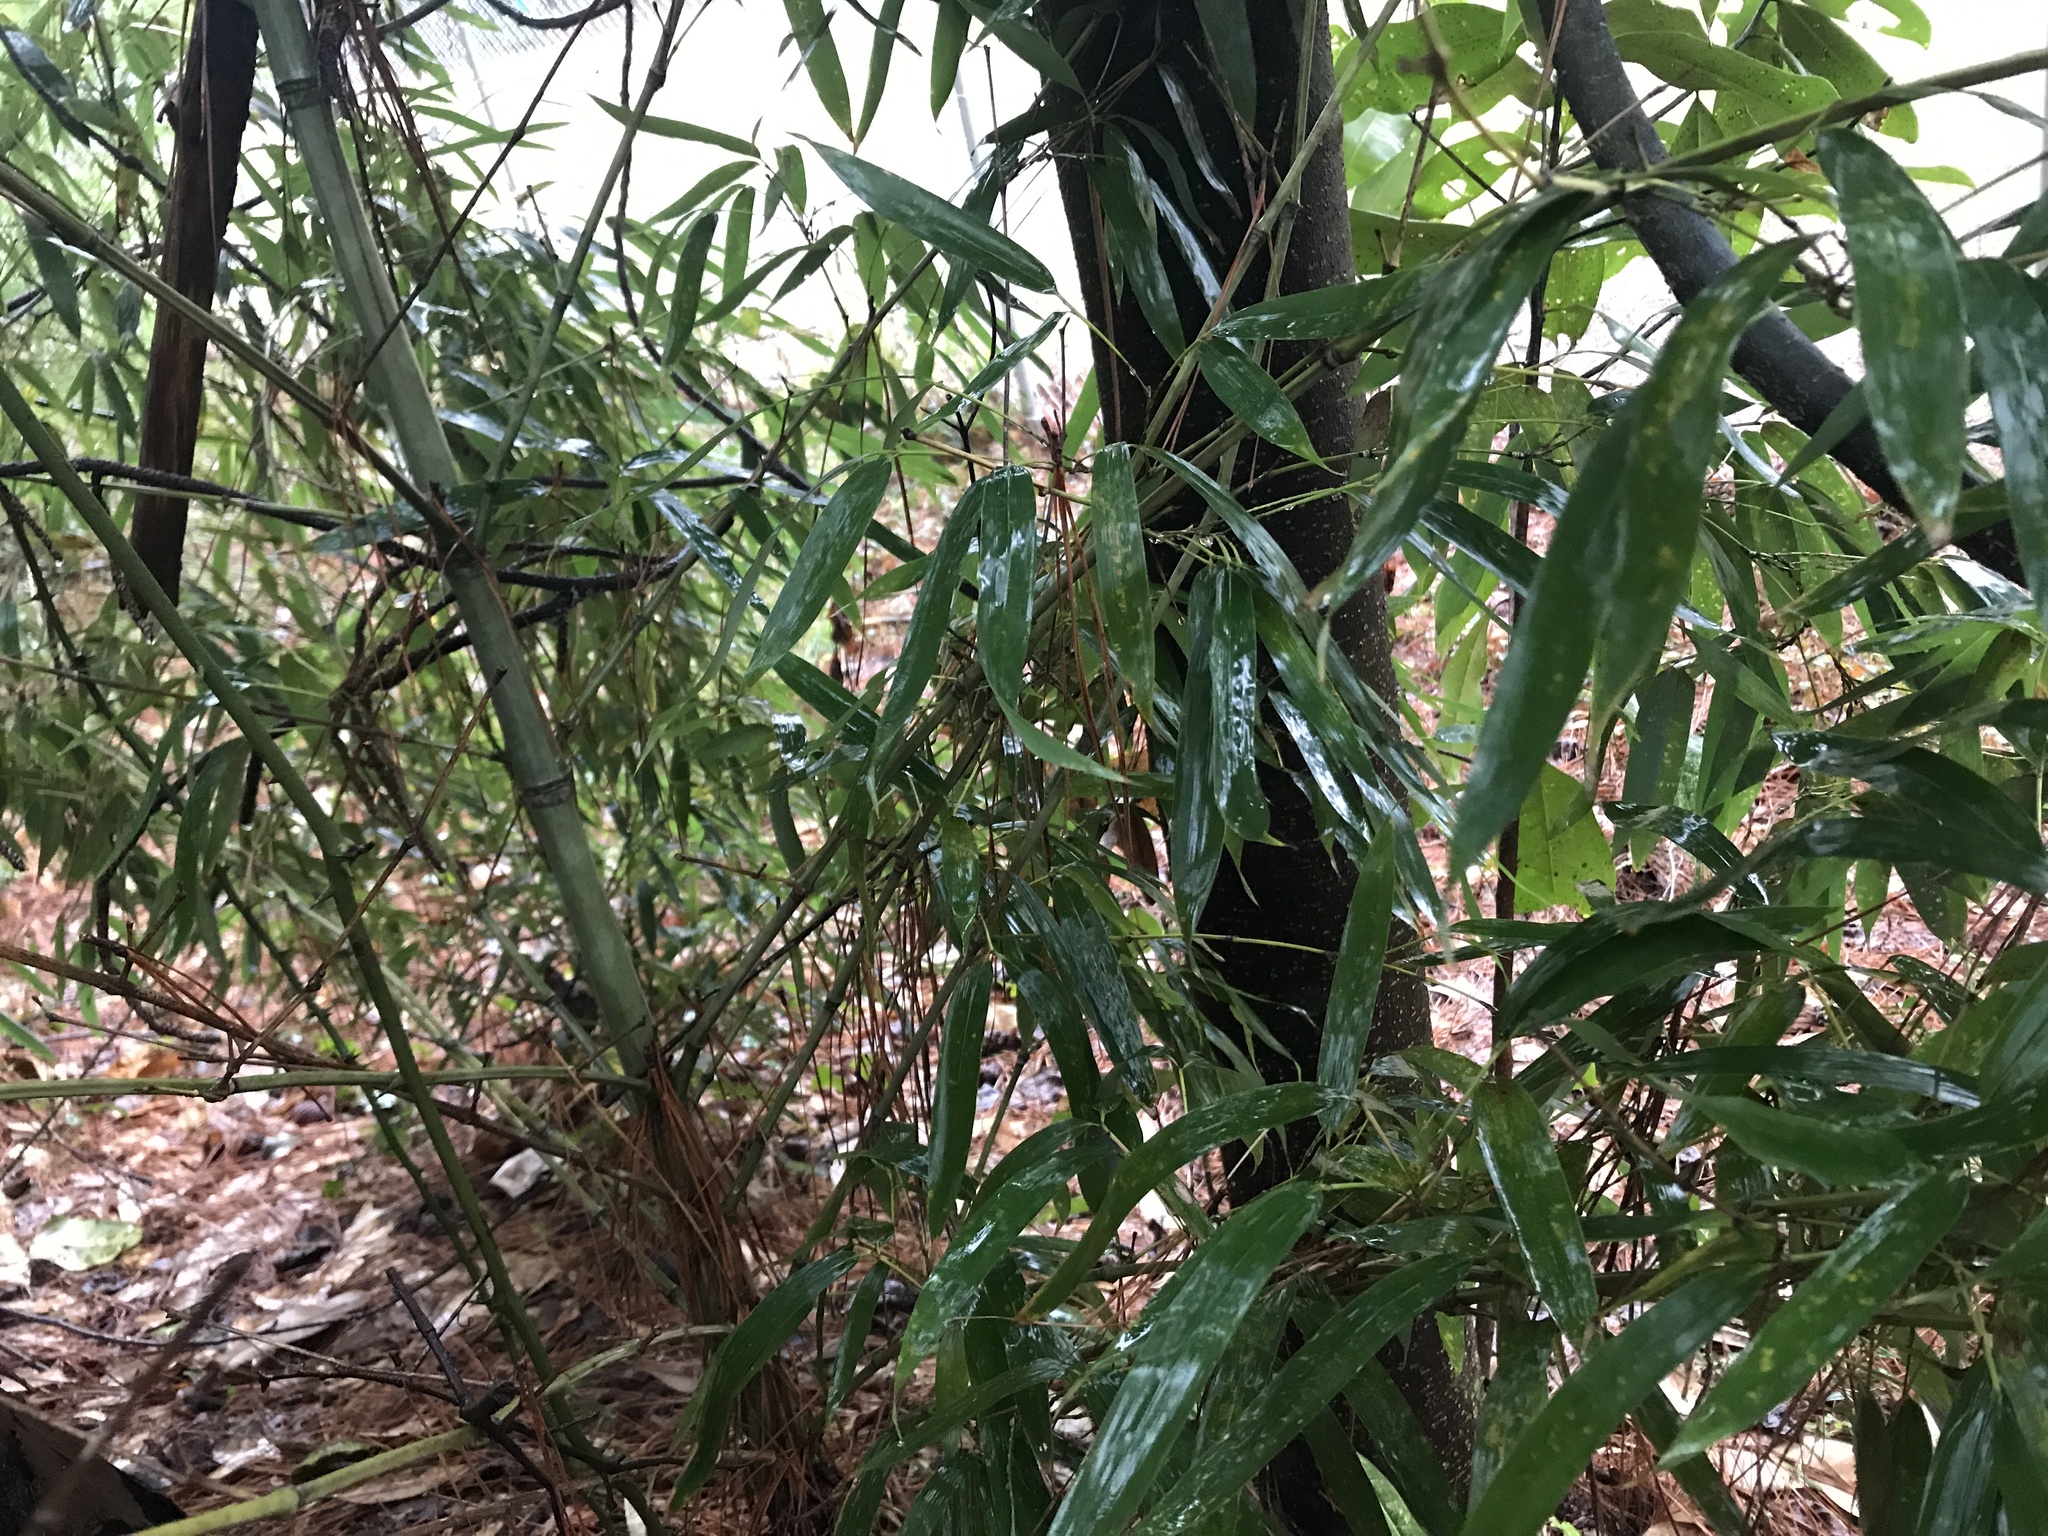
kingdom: Plantae
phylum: Tracheophyta
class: Liliopsida
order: Poales
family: Poaceae
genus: Arundinaria
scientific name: Arundinaria gigantea
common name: Giant cane
